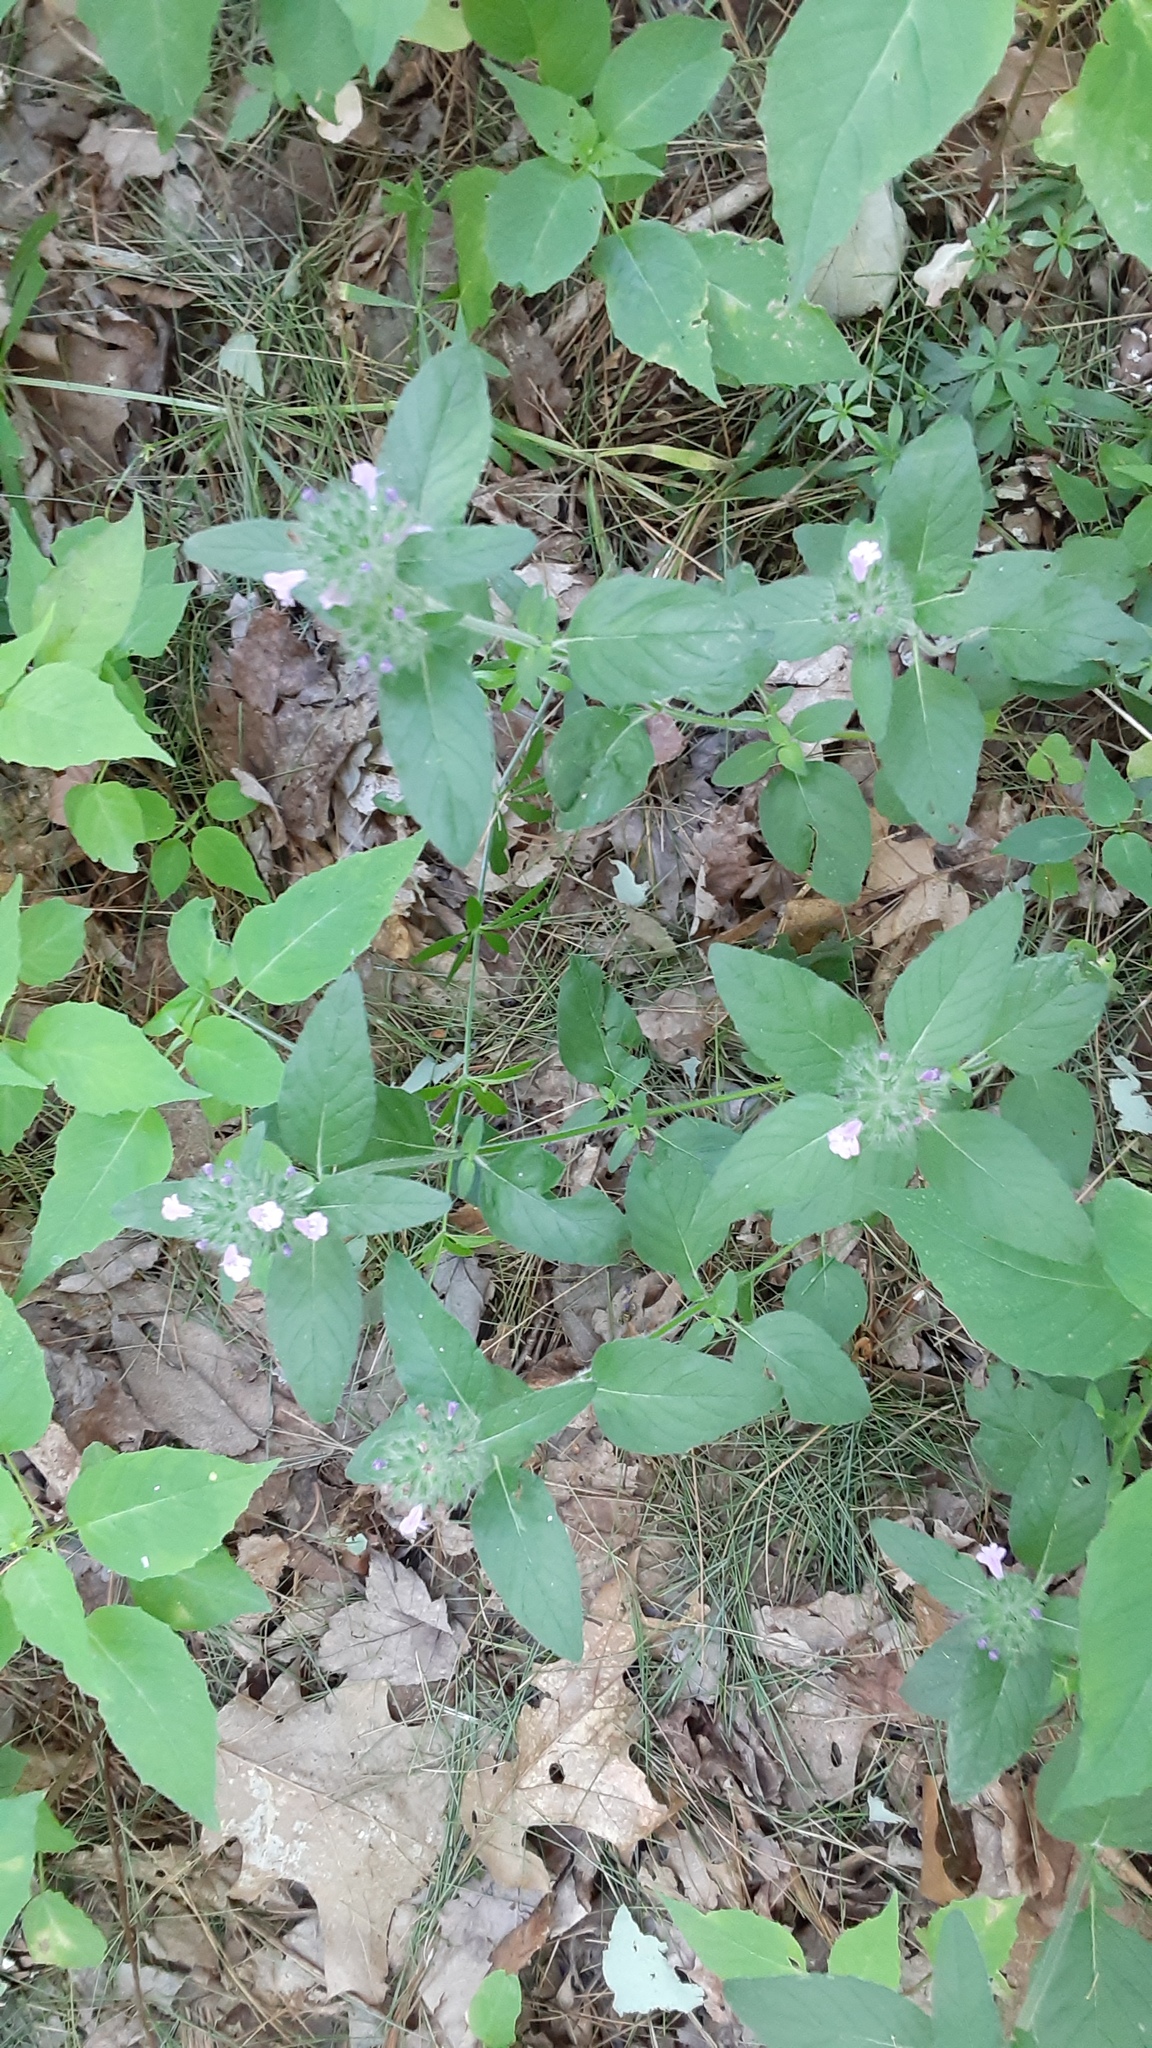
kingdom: Plantae
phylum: Tracheophyta
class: Magnoliopsida
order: Lamiales
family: Lamiaceae
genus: Clinopodium
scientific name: Clinopodium vulgare
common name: Wild basil
